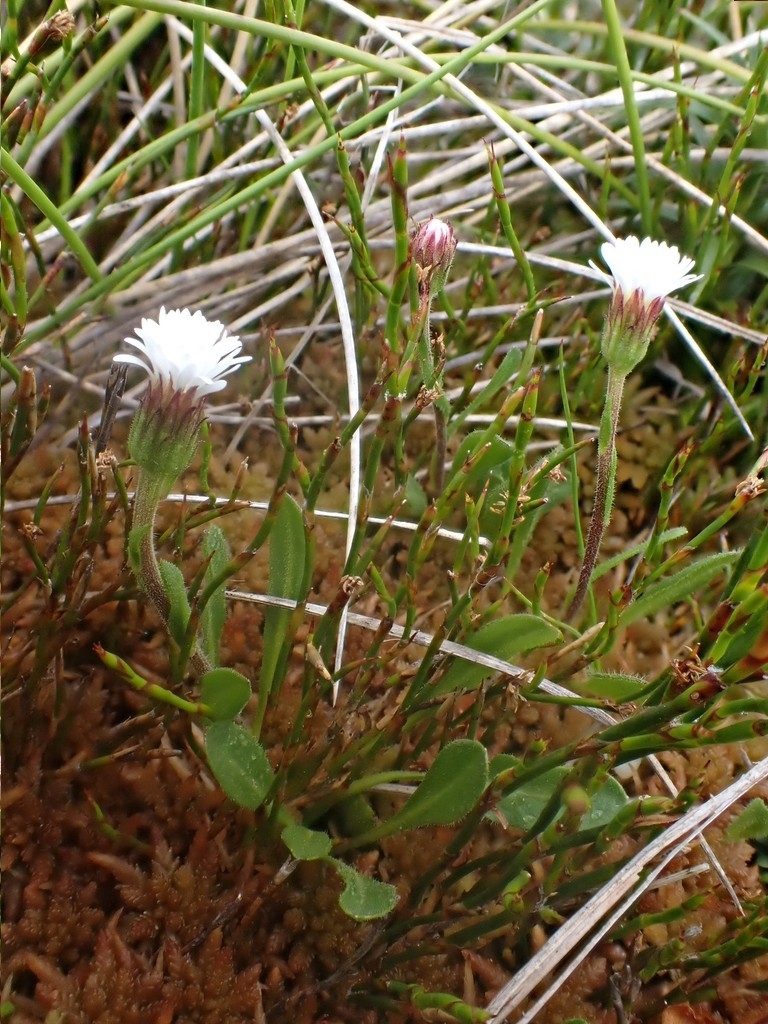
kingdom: Plantae
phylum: Tracheophyta
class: Magnoliopsida
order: Asterales
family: Asteraceae
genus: Pappochroma
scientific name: Pappochroma paludicola
